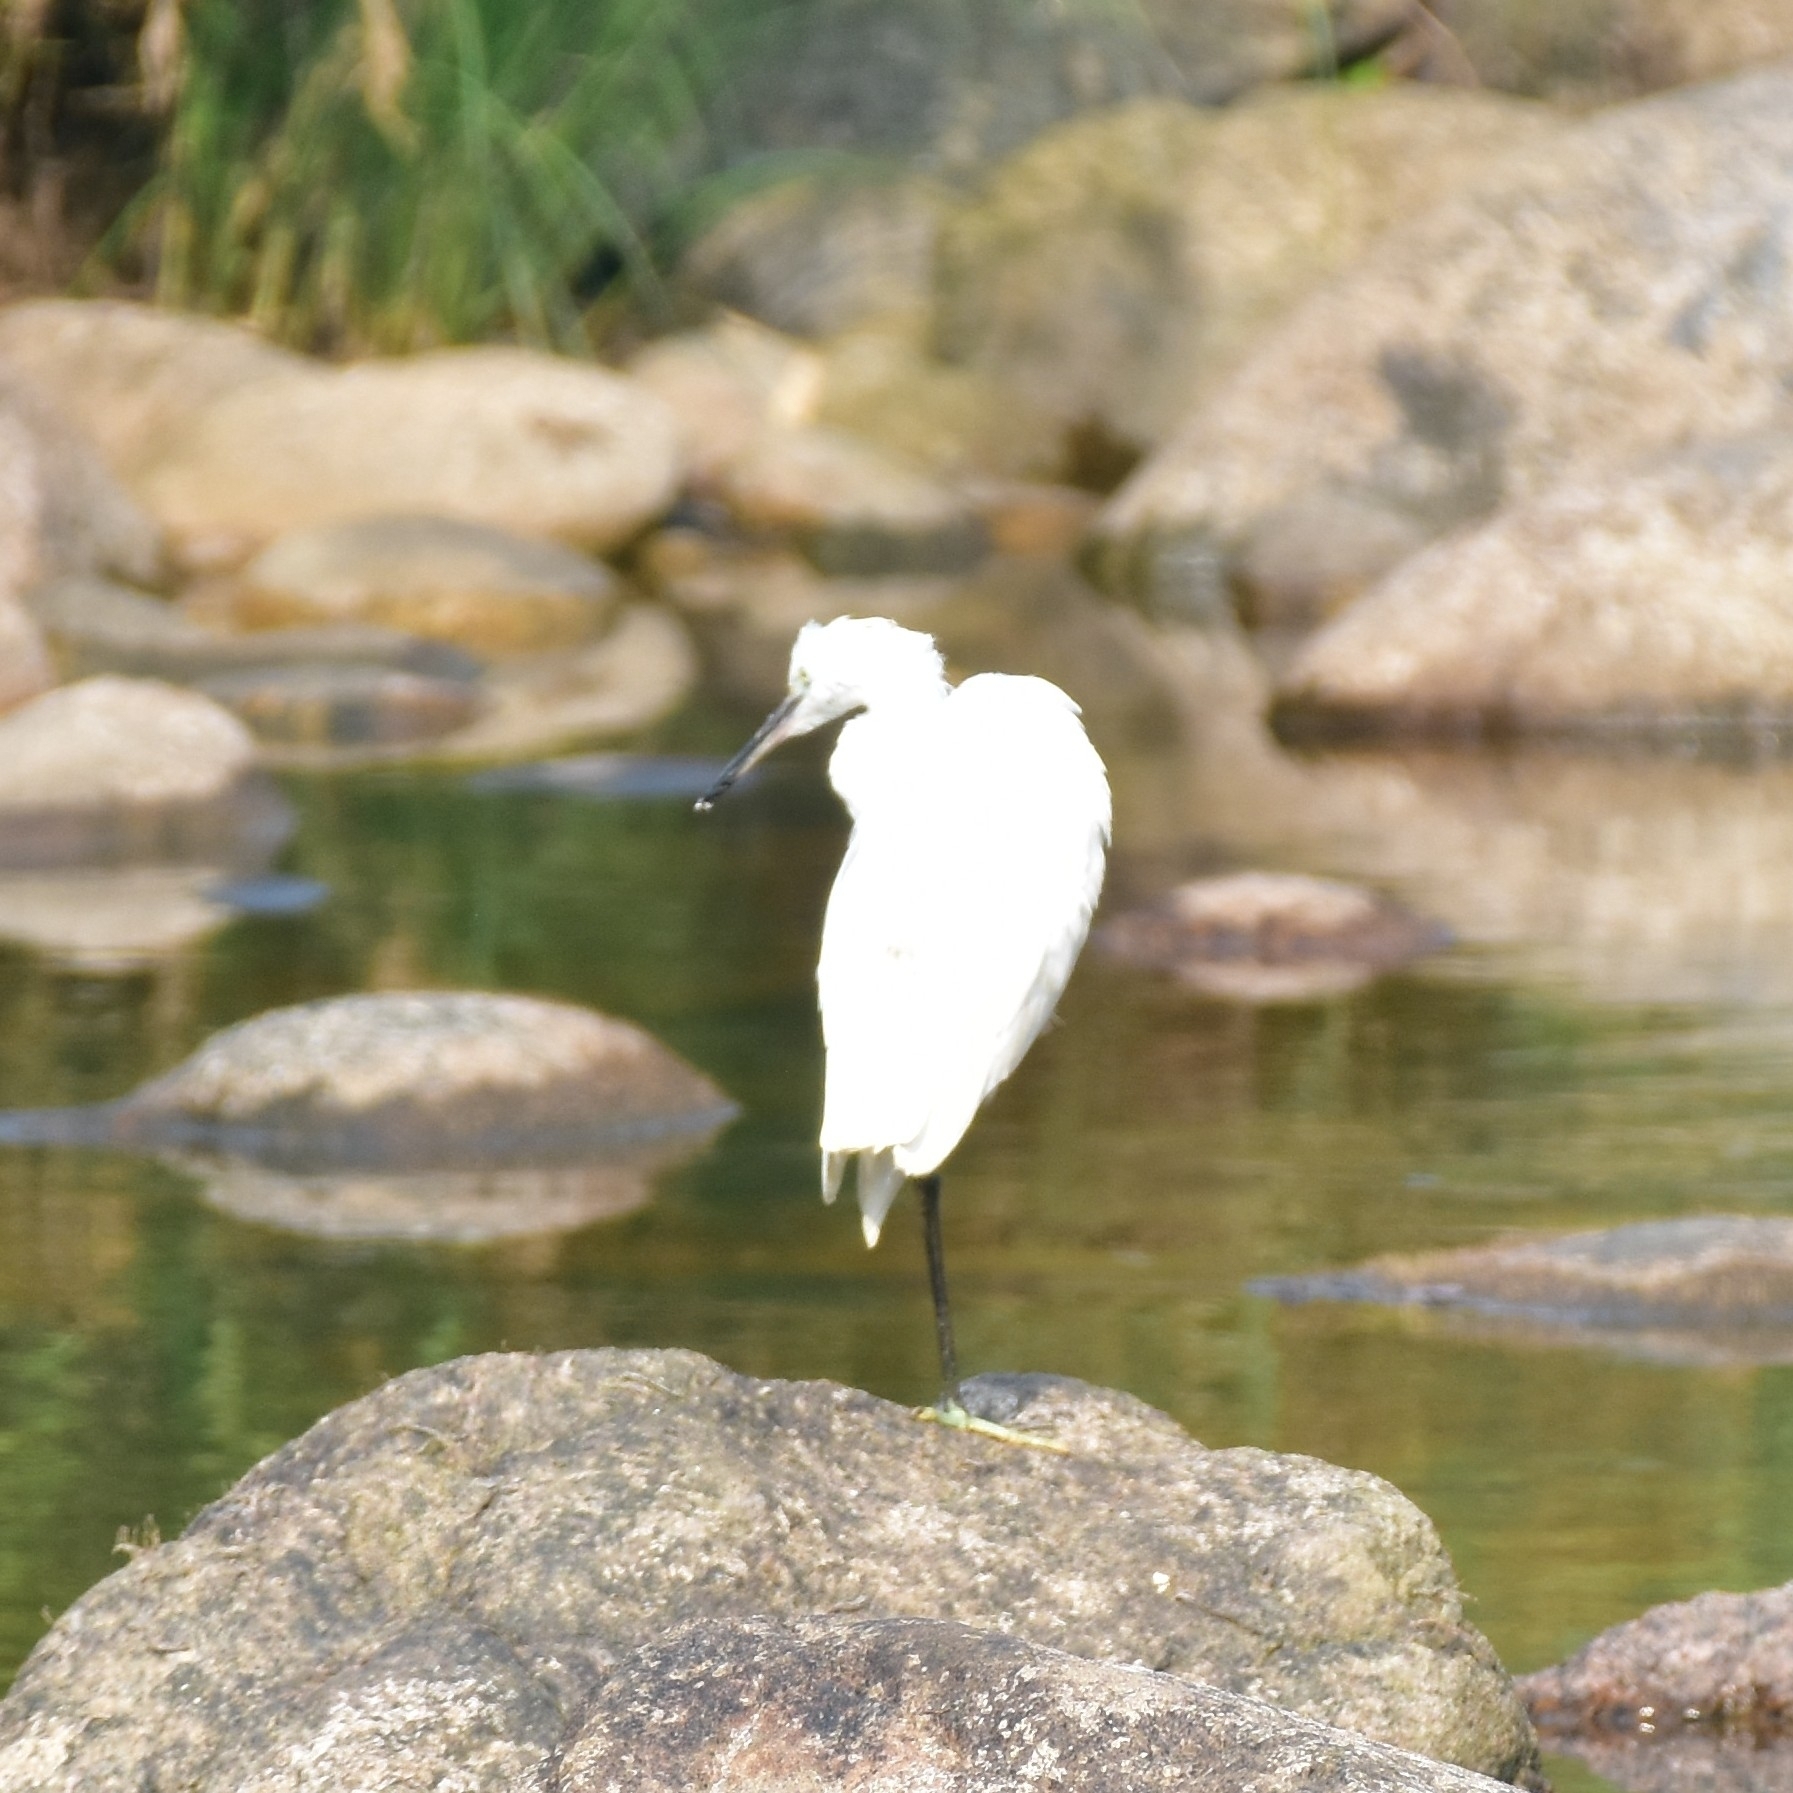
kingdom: Animalia
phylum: Chordata
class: Aves
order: Pelecaniformes
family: Ardeidae
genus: Egretta
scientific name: Egretta garzetta
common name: Little egret
